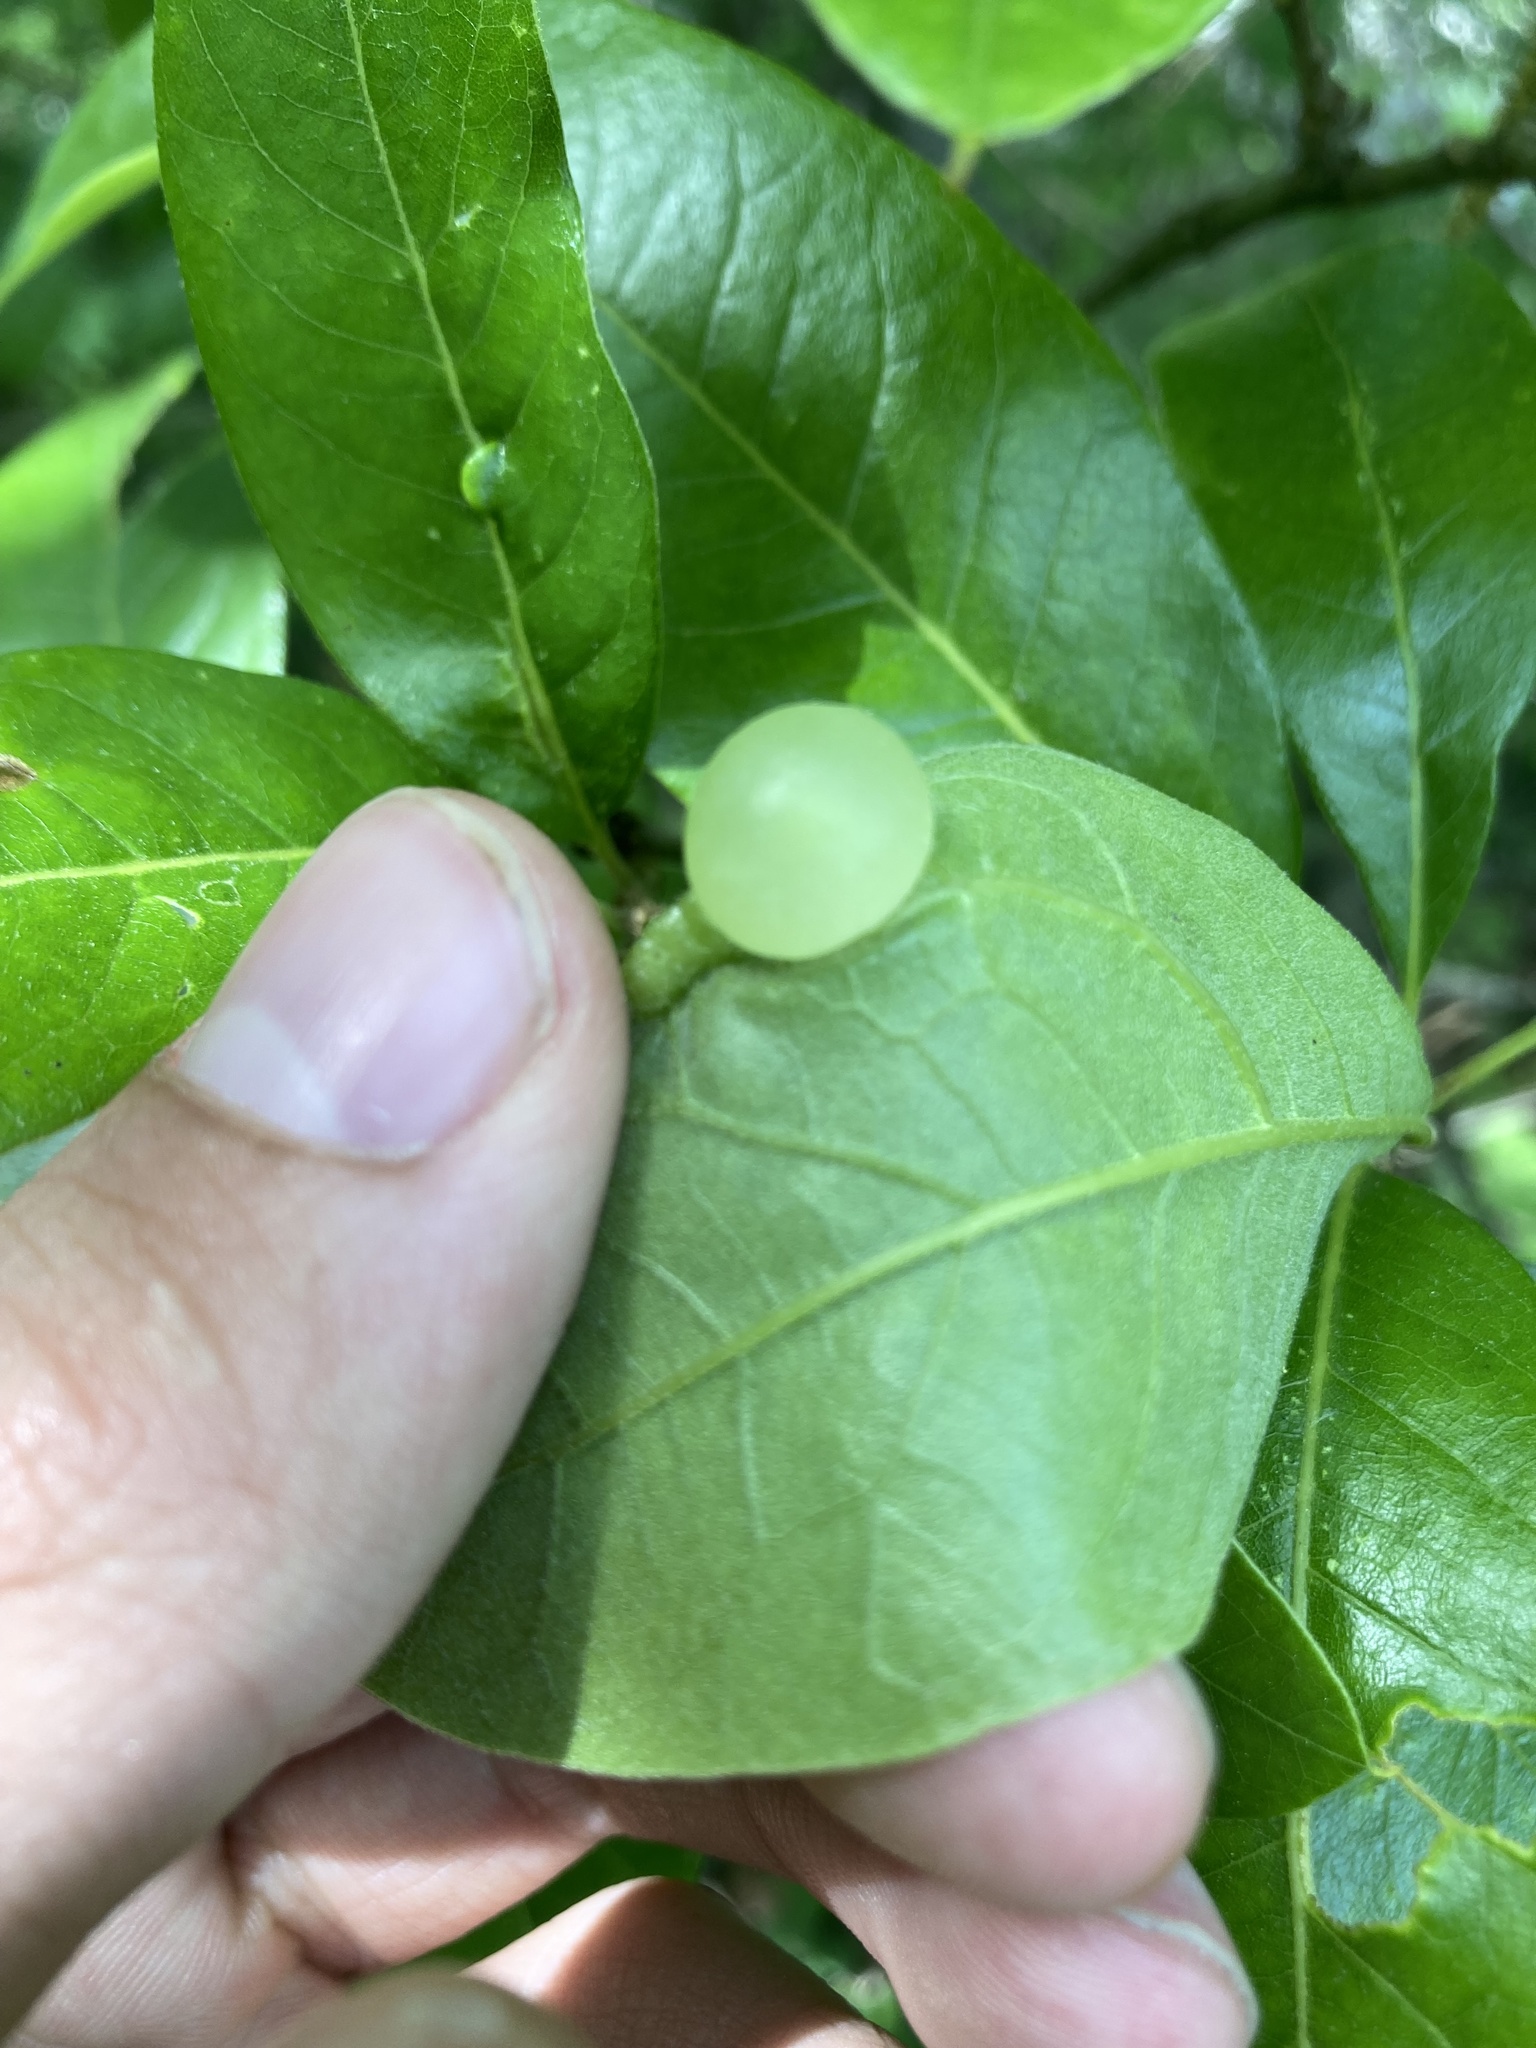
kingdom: Animalia
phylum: Arthropoda
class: Insecta
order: Hymenoptera
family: Cynipidae
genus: Amphibolips
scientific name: Amphibolips
